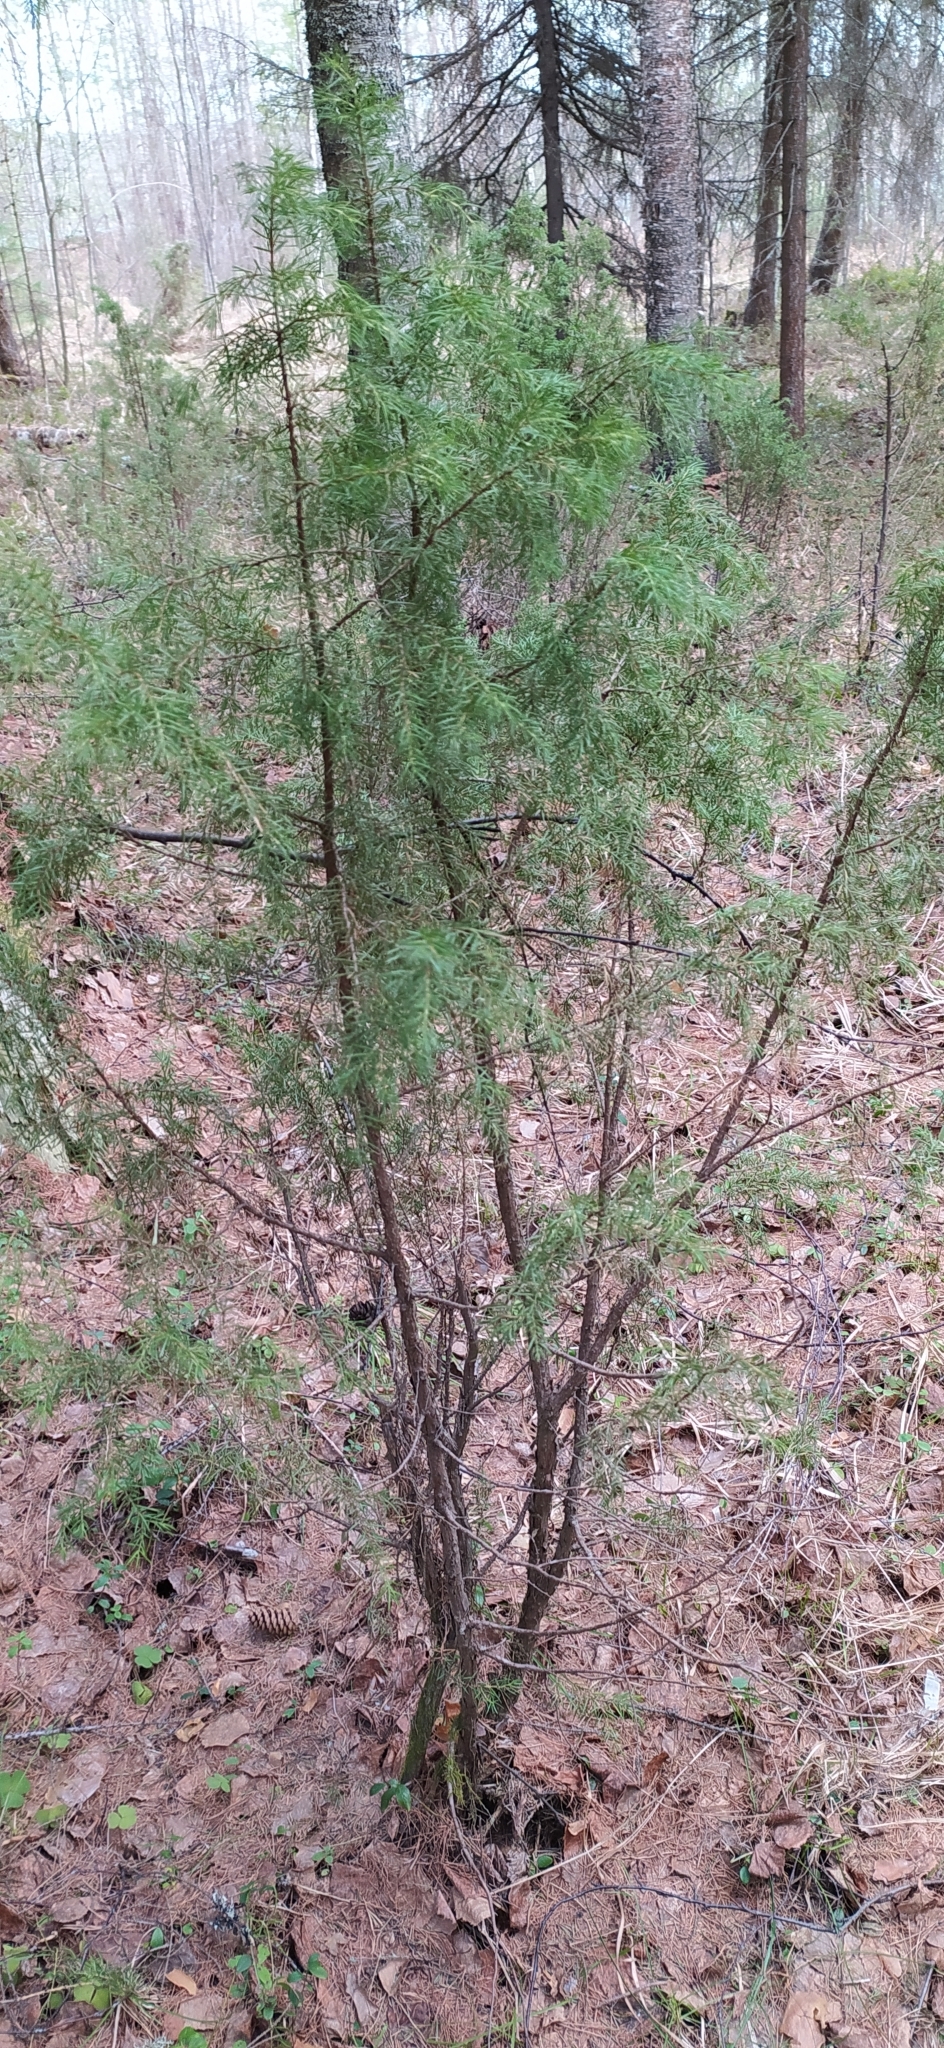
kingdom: Plantae
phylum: Tracheophyta
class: Pinopsida
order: Pinales
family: Cupressaceae
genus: Juniperus
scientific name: Juniperus communis
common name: Common juniper
